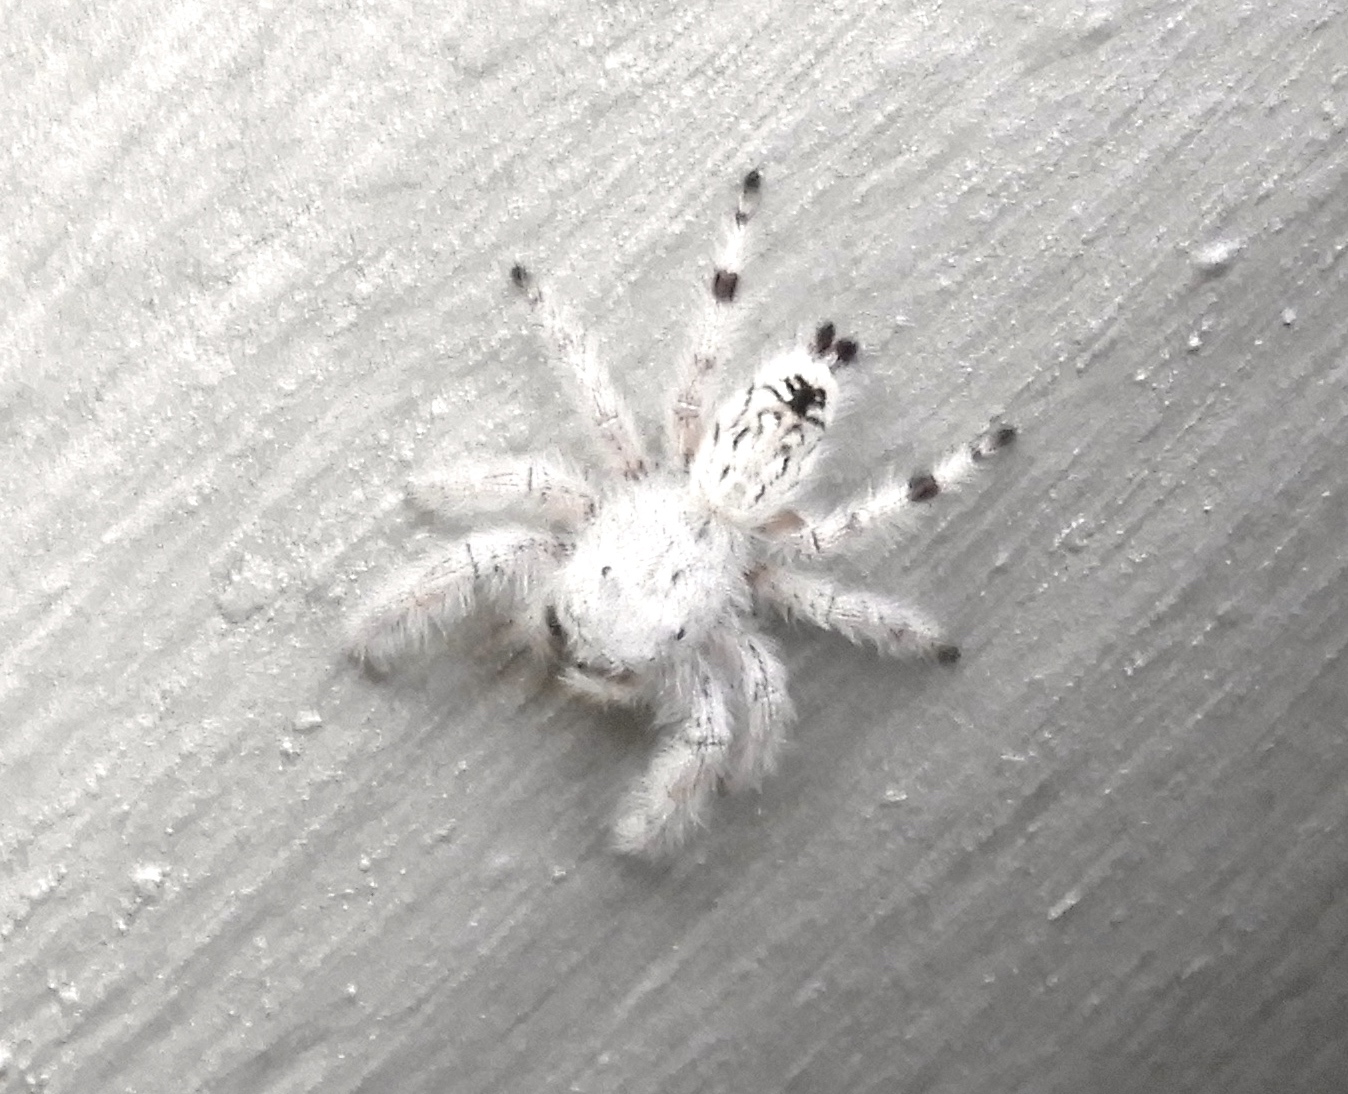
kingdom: Animalia
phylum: Arthropoda
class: Arachnida
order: Araneae
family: Salticidae
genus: Paraphidippus
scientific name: Paraphidippus fartilis
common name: Jumping spiders
